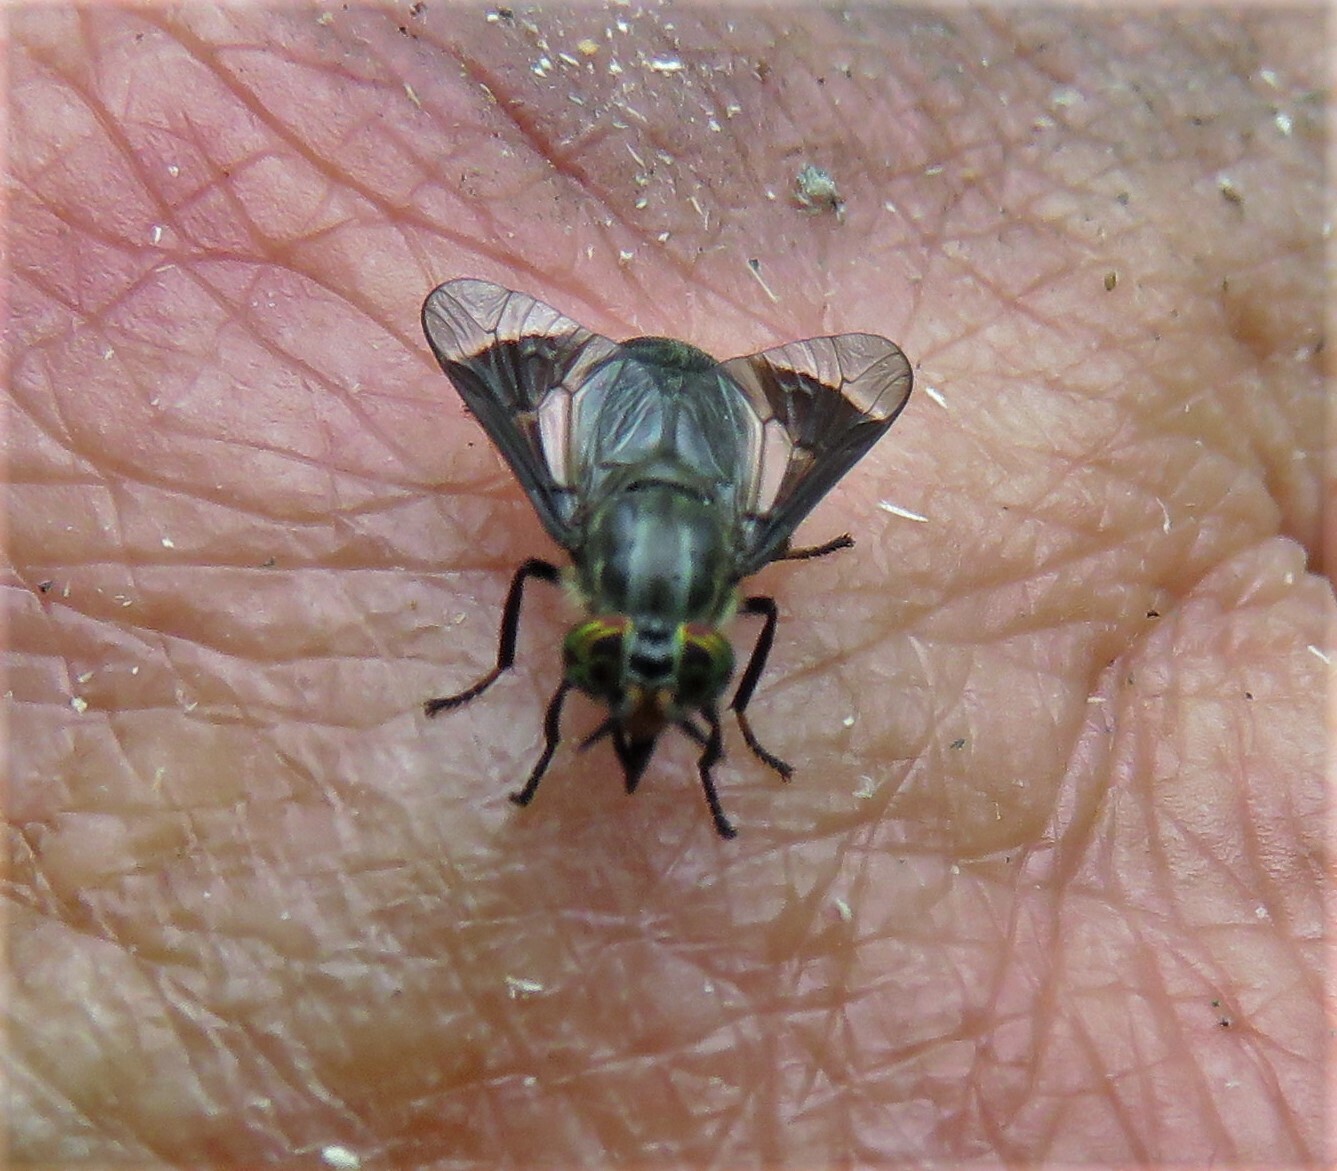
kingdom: Animalia
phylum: Arthropoda
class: Insecta
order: Diptera
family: Tabanidae
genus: Chrysops
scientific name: Chrysops niger
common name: Black deer fly
